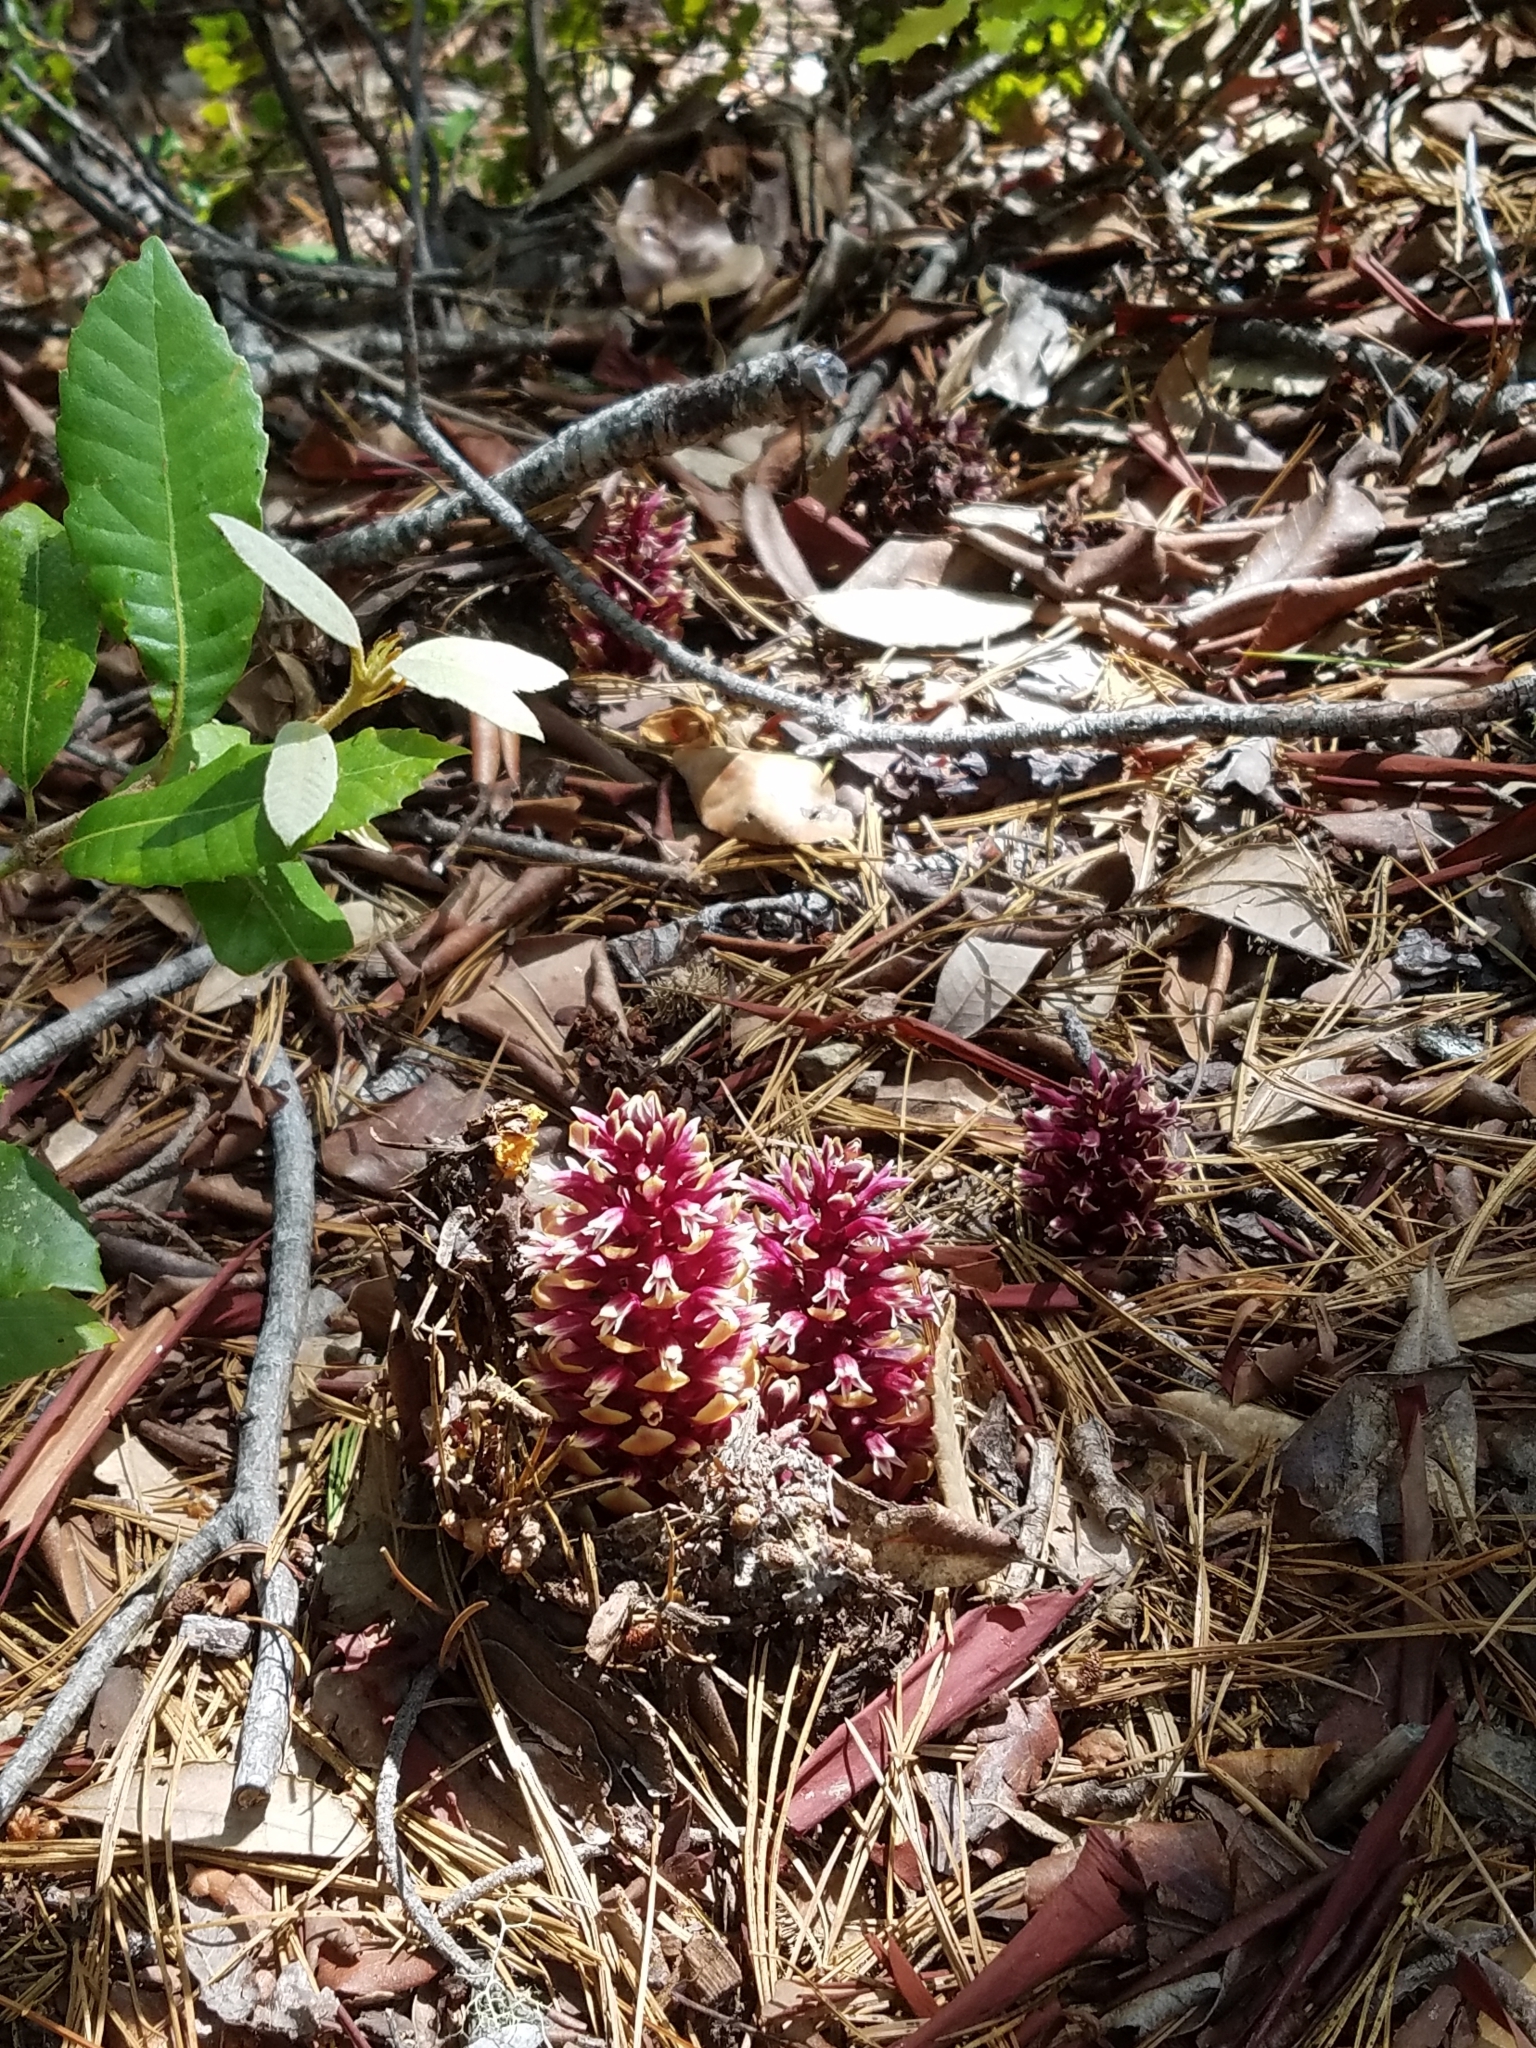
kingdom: Plantae
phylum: Tracheophyta
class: Magnoliopsida
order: Lamiales
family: Orobanchaceae
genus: Kopsiopsis
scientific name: Kopsiopsis strobilacea
